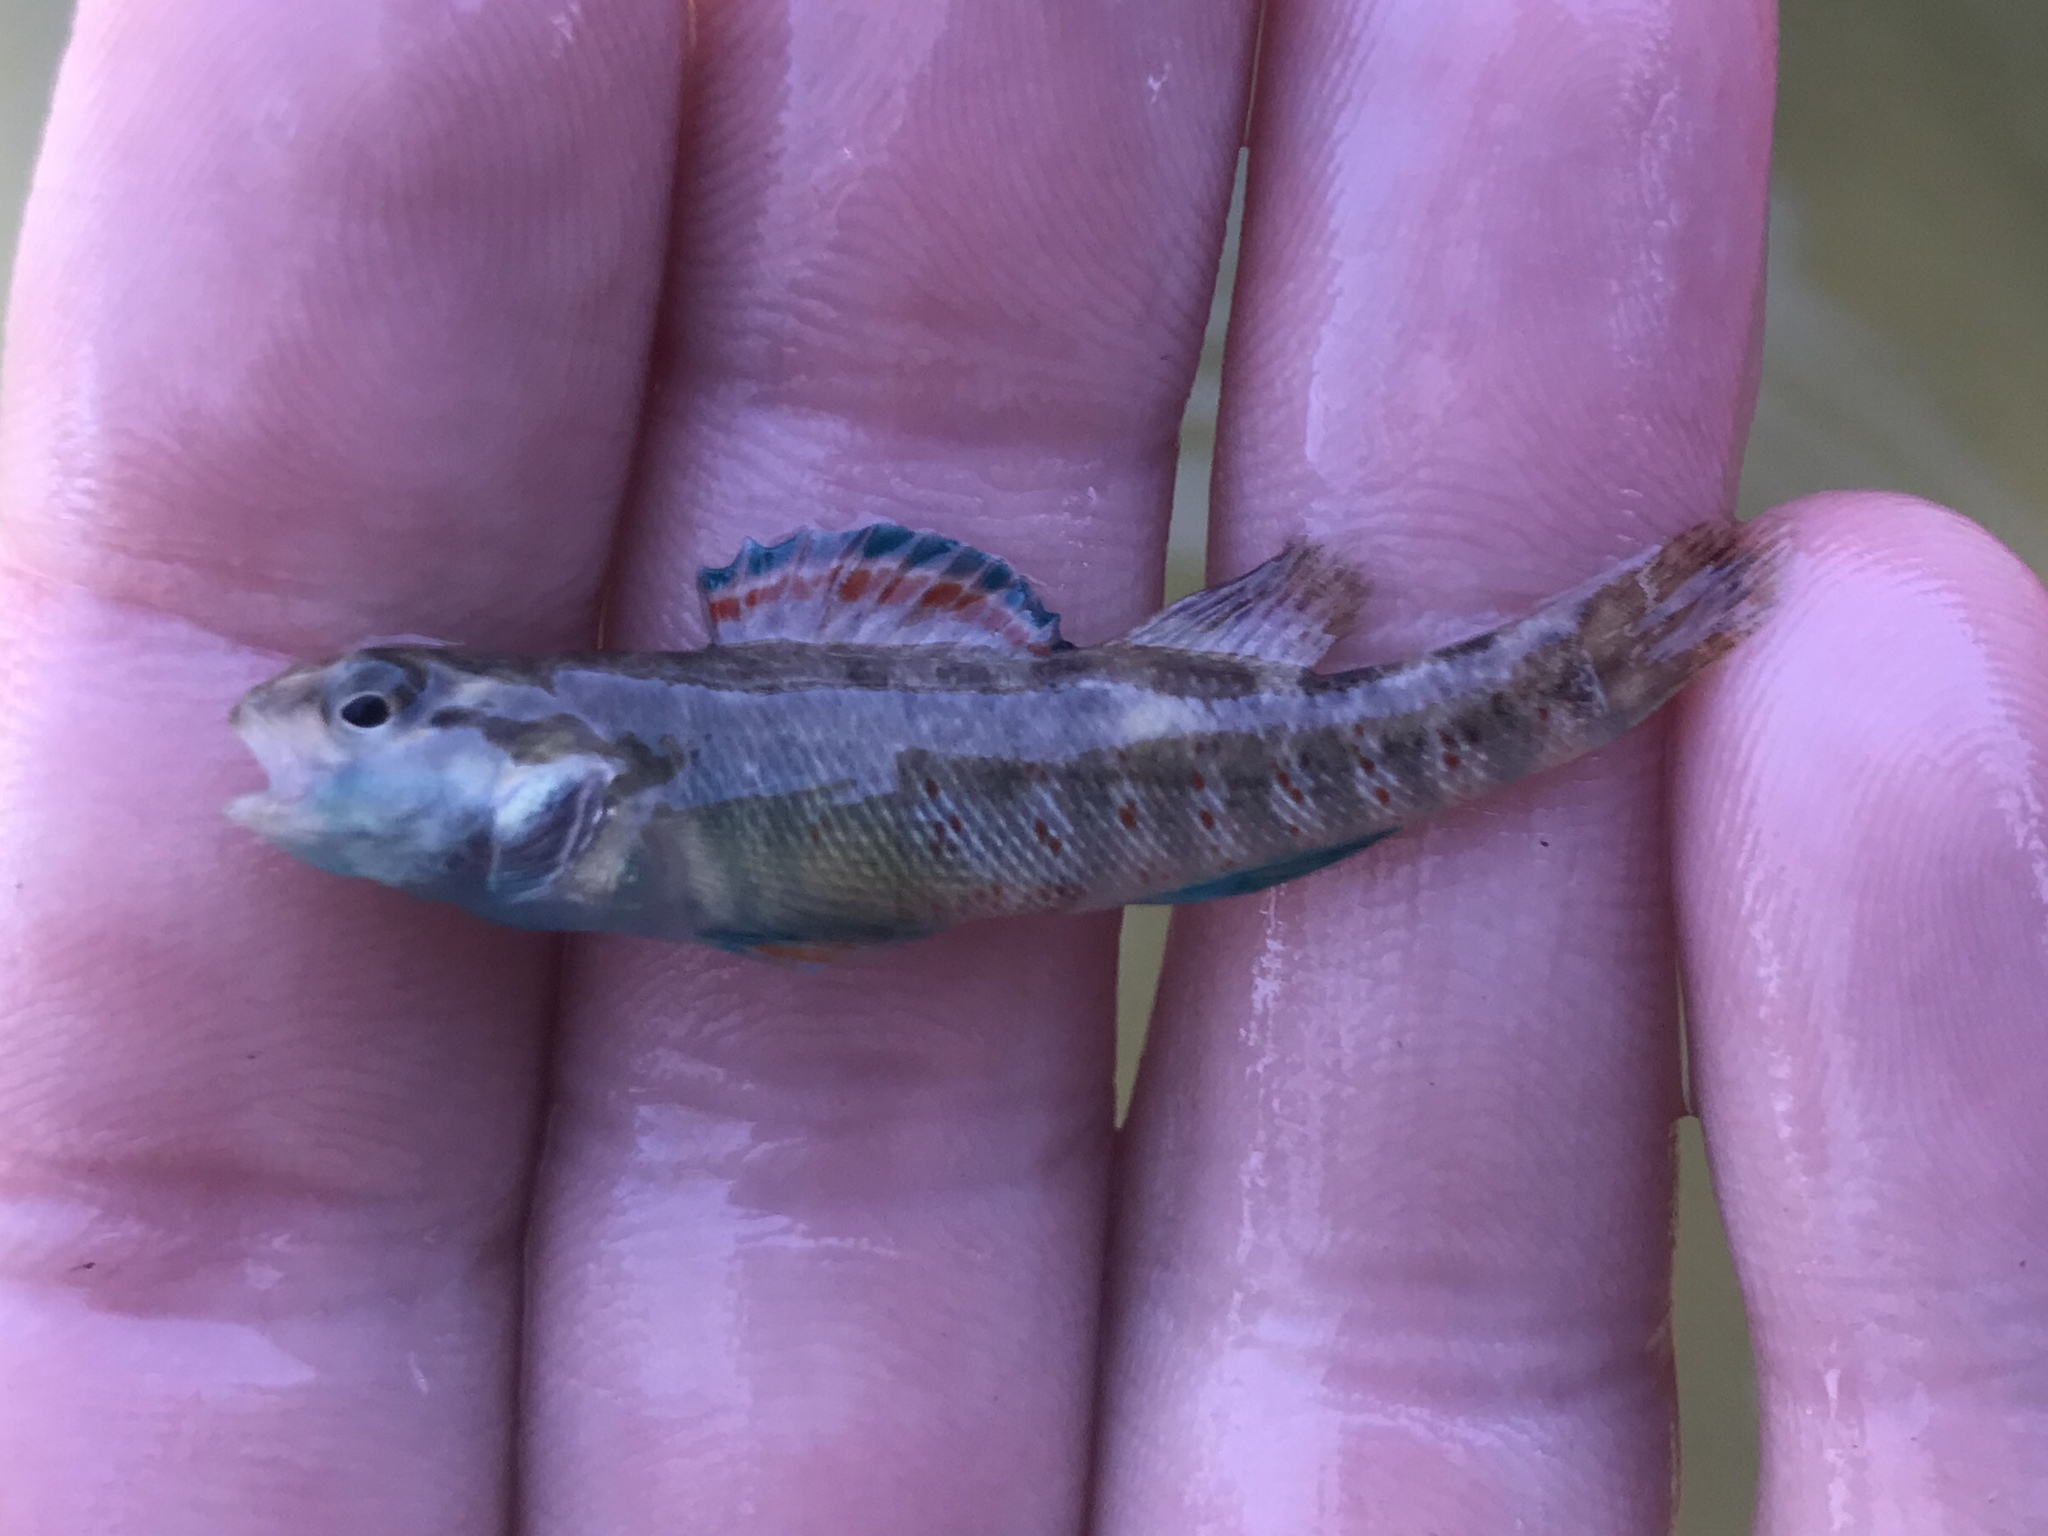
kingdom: Animalia
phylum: Chordata
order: Perciformes
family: Percidae
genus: Etheostoma
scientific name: Etheostoma lepidum
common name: Greenthroat darter
